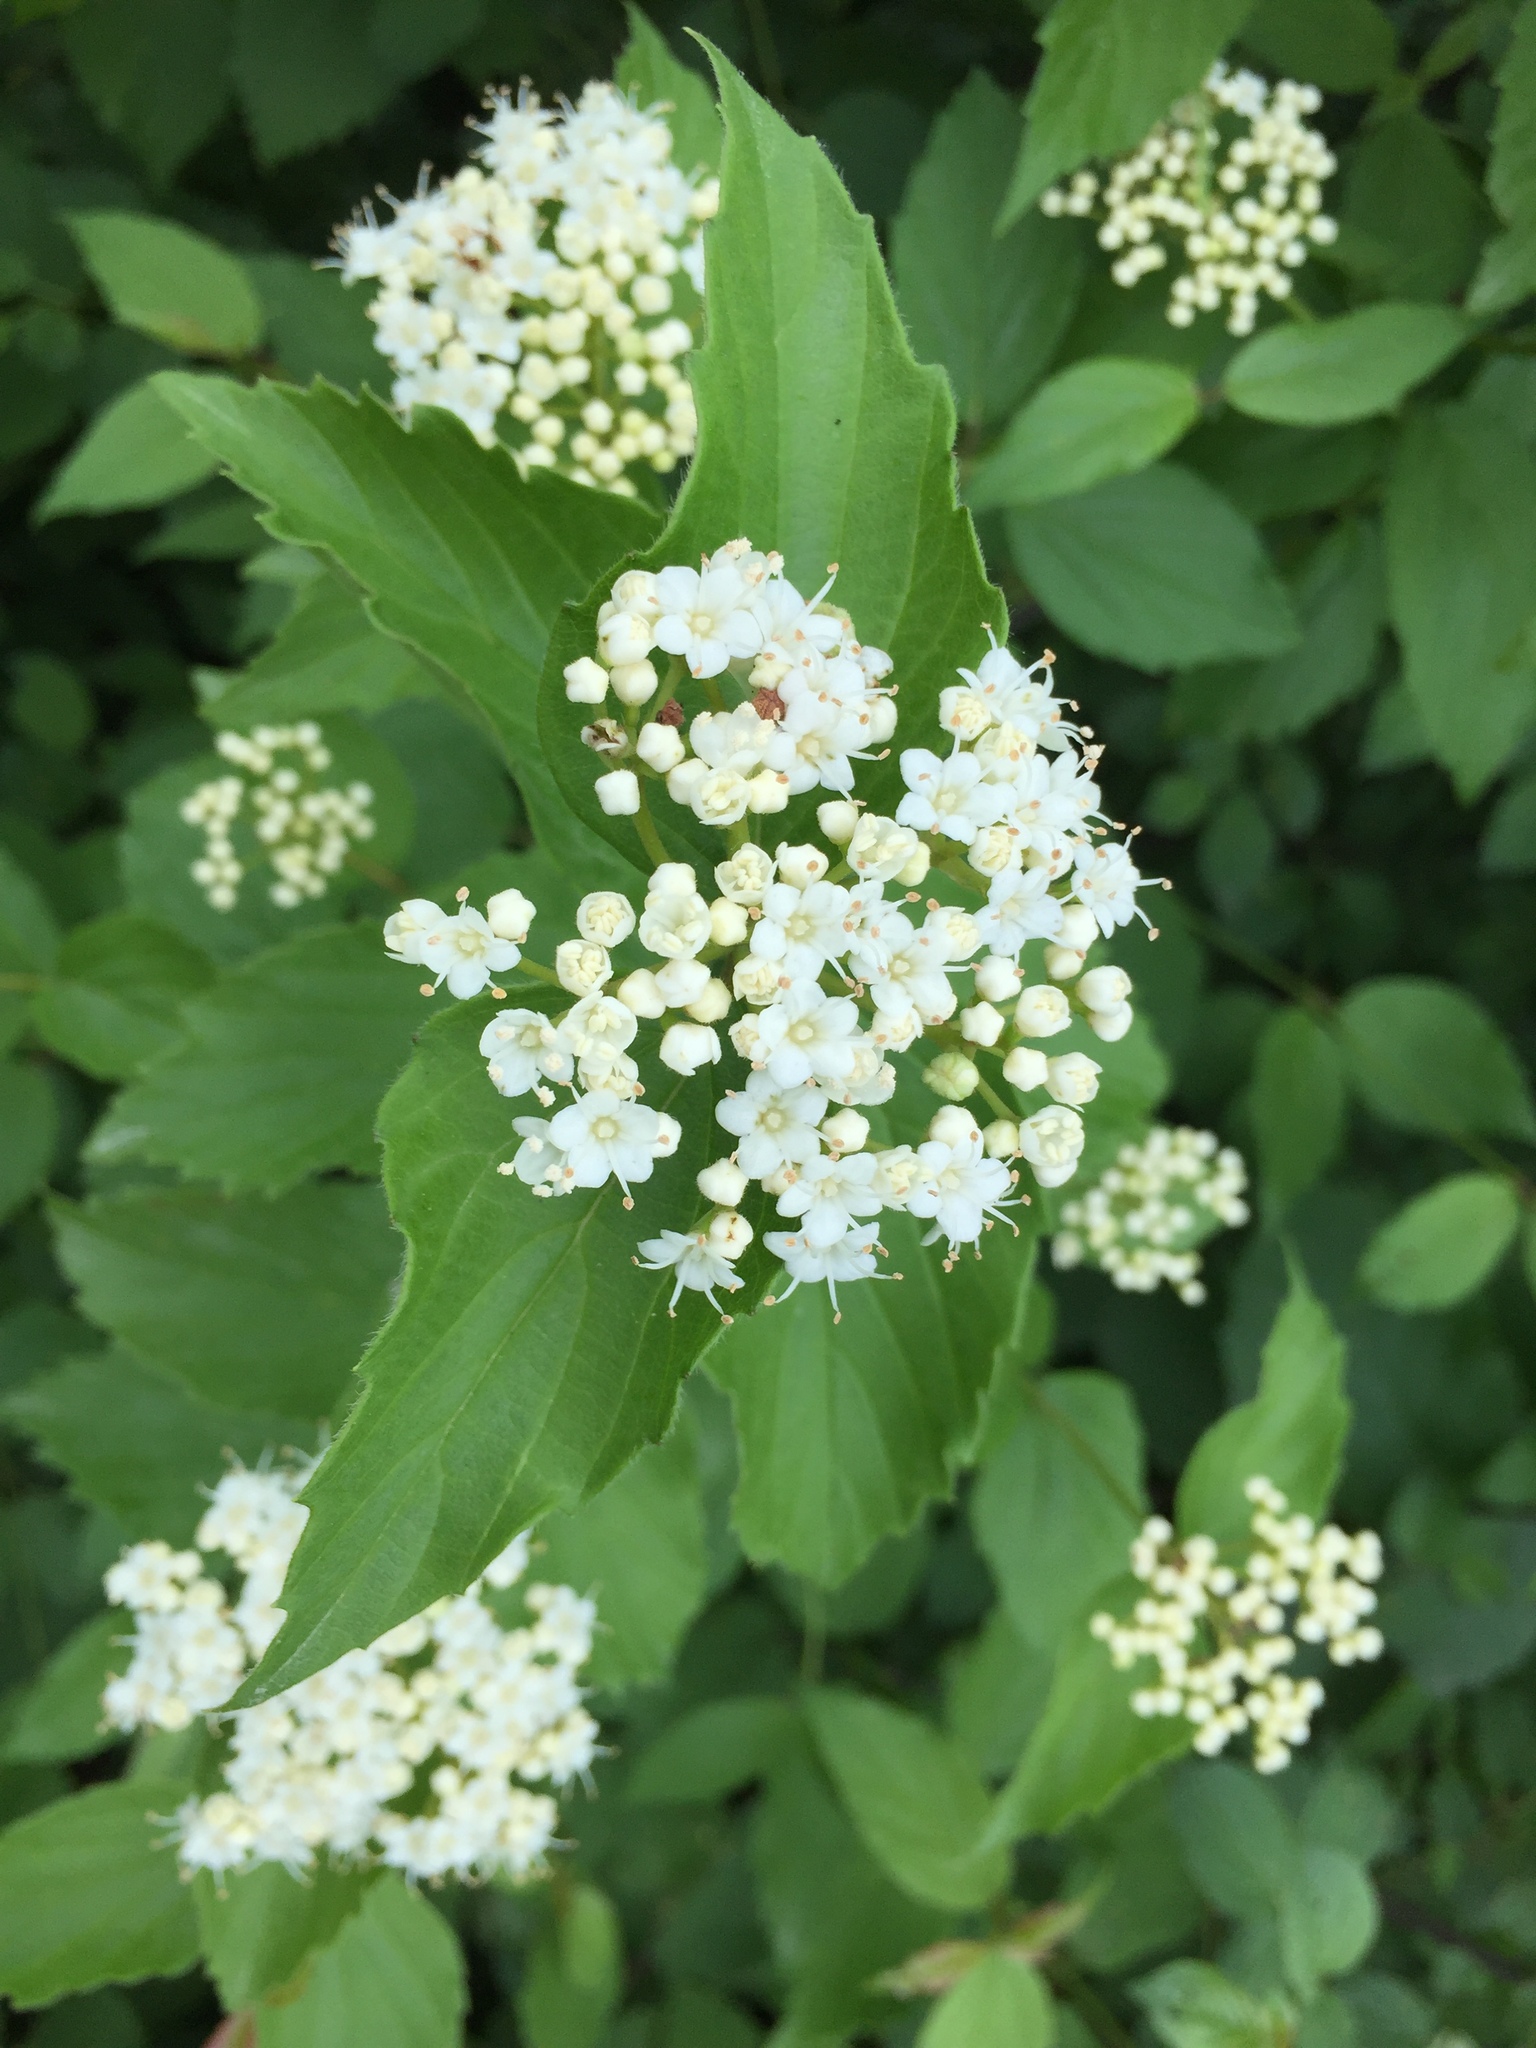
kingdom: Plantae
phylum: Tracheophyta
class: Magnoliopsida
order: Dipsacales
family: Viburnaceae
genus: Viburnum
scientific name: Viburnum rafinesqueanum
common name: Downy arrow-wood
